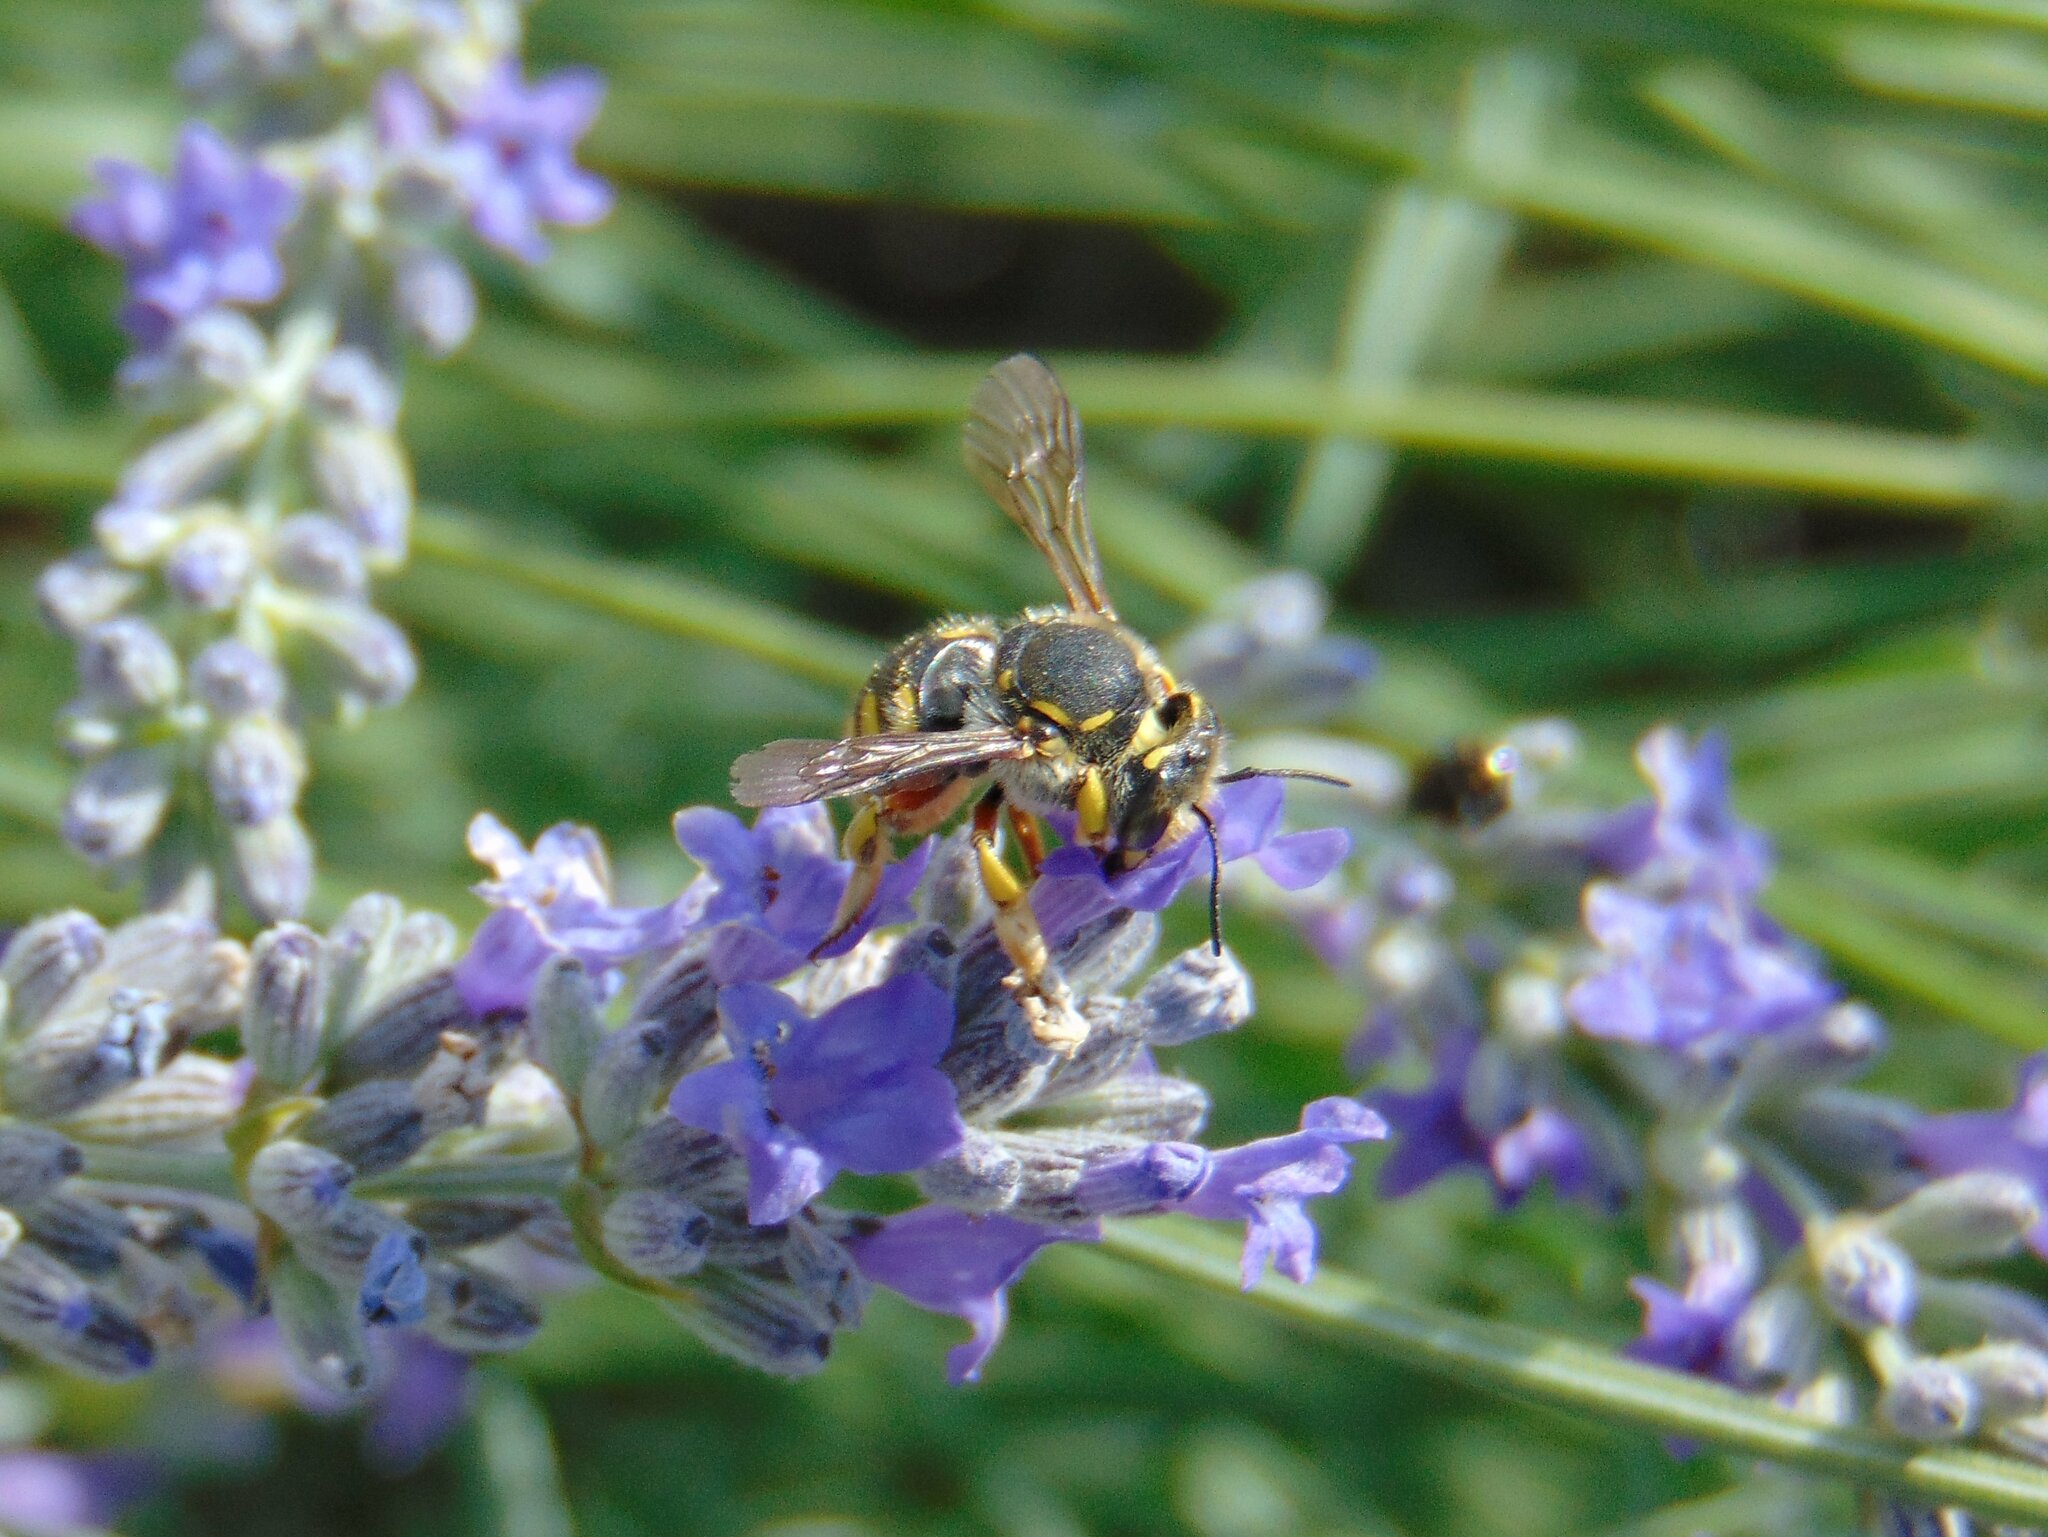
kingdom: Animalia
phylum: Arthropoda
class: Insecta
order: Hymenoptera
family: Megachilidae
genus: Anthidium
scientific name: Anthidium manicatum
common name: Wool carder bee
